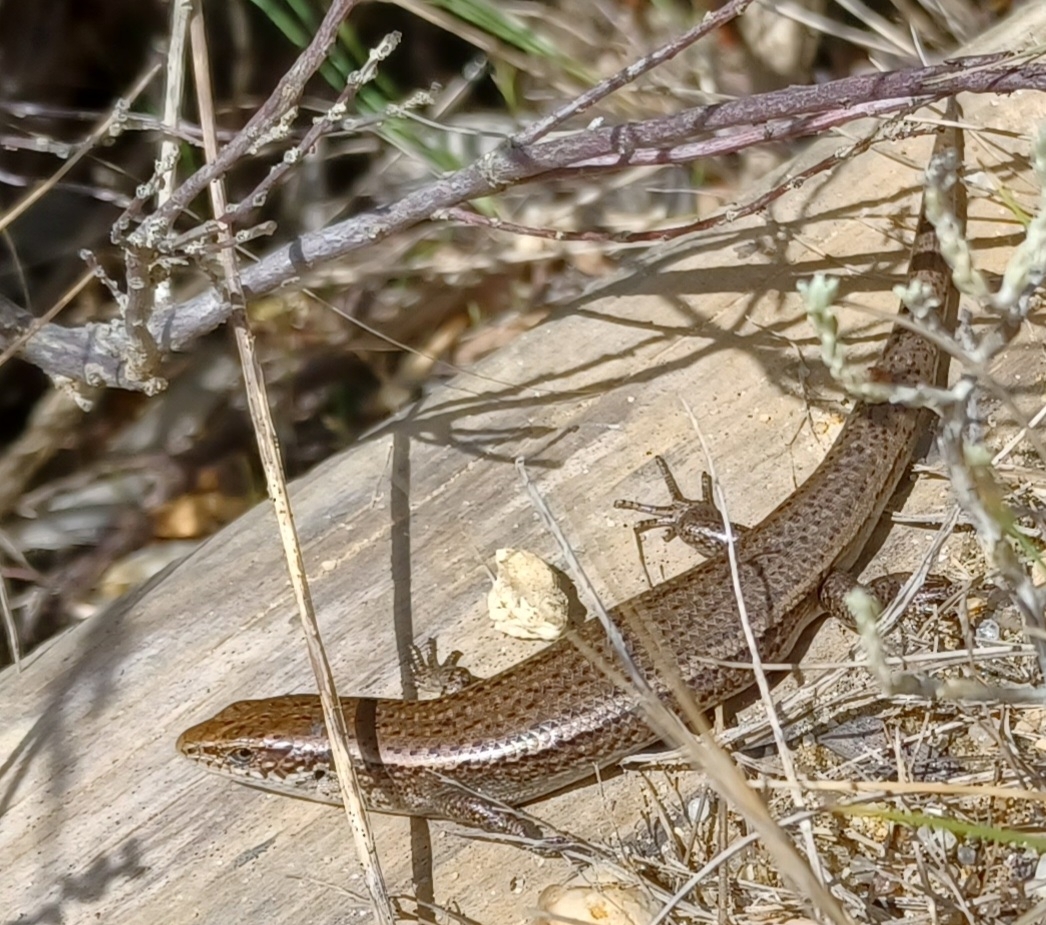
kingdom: Animalia
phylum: Chordata
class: Squamata
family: Scincidae
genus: Carinascincus
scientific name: Carinascincus metallicus
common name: Metallic cool-skink
